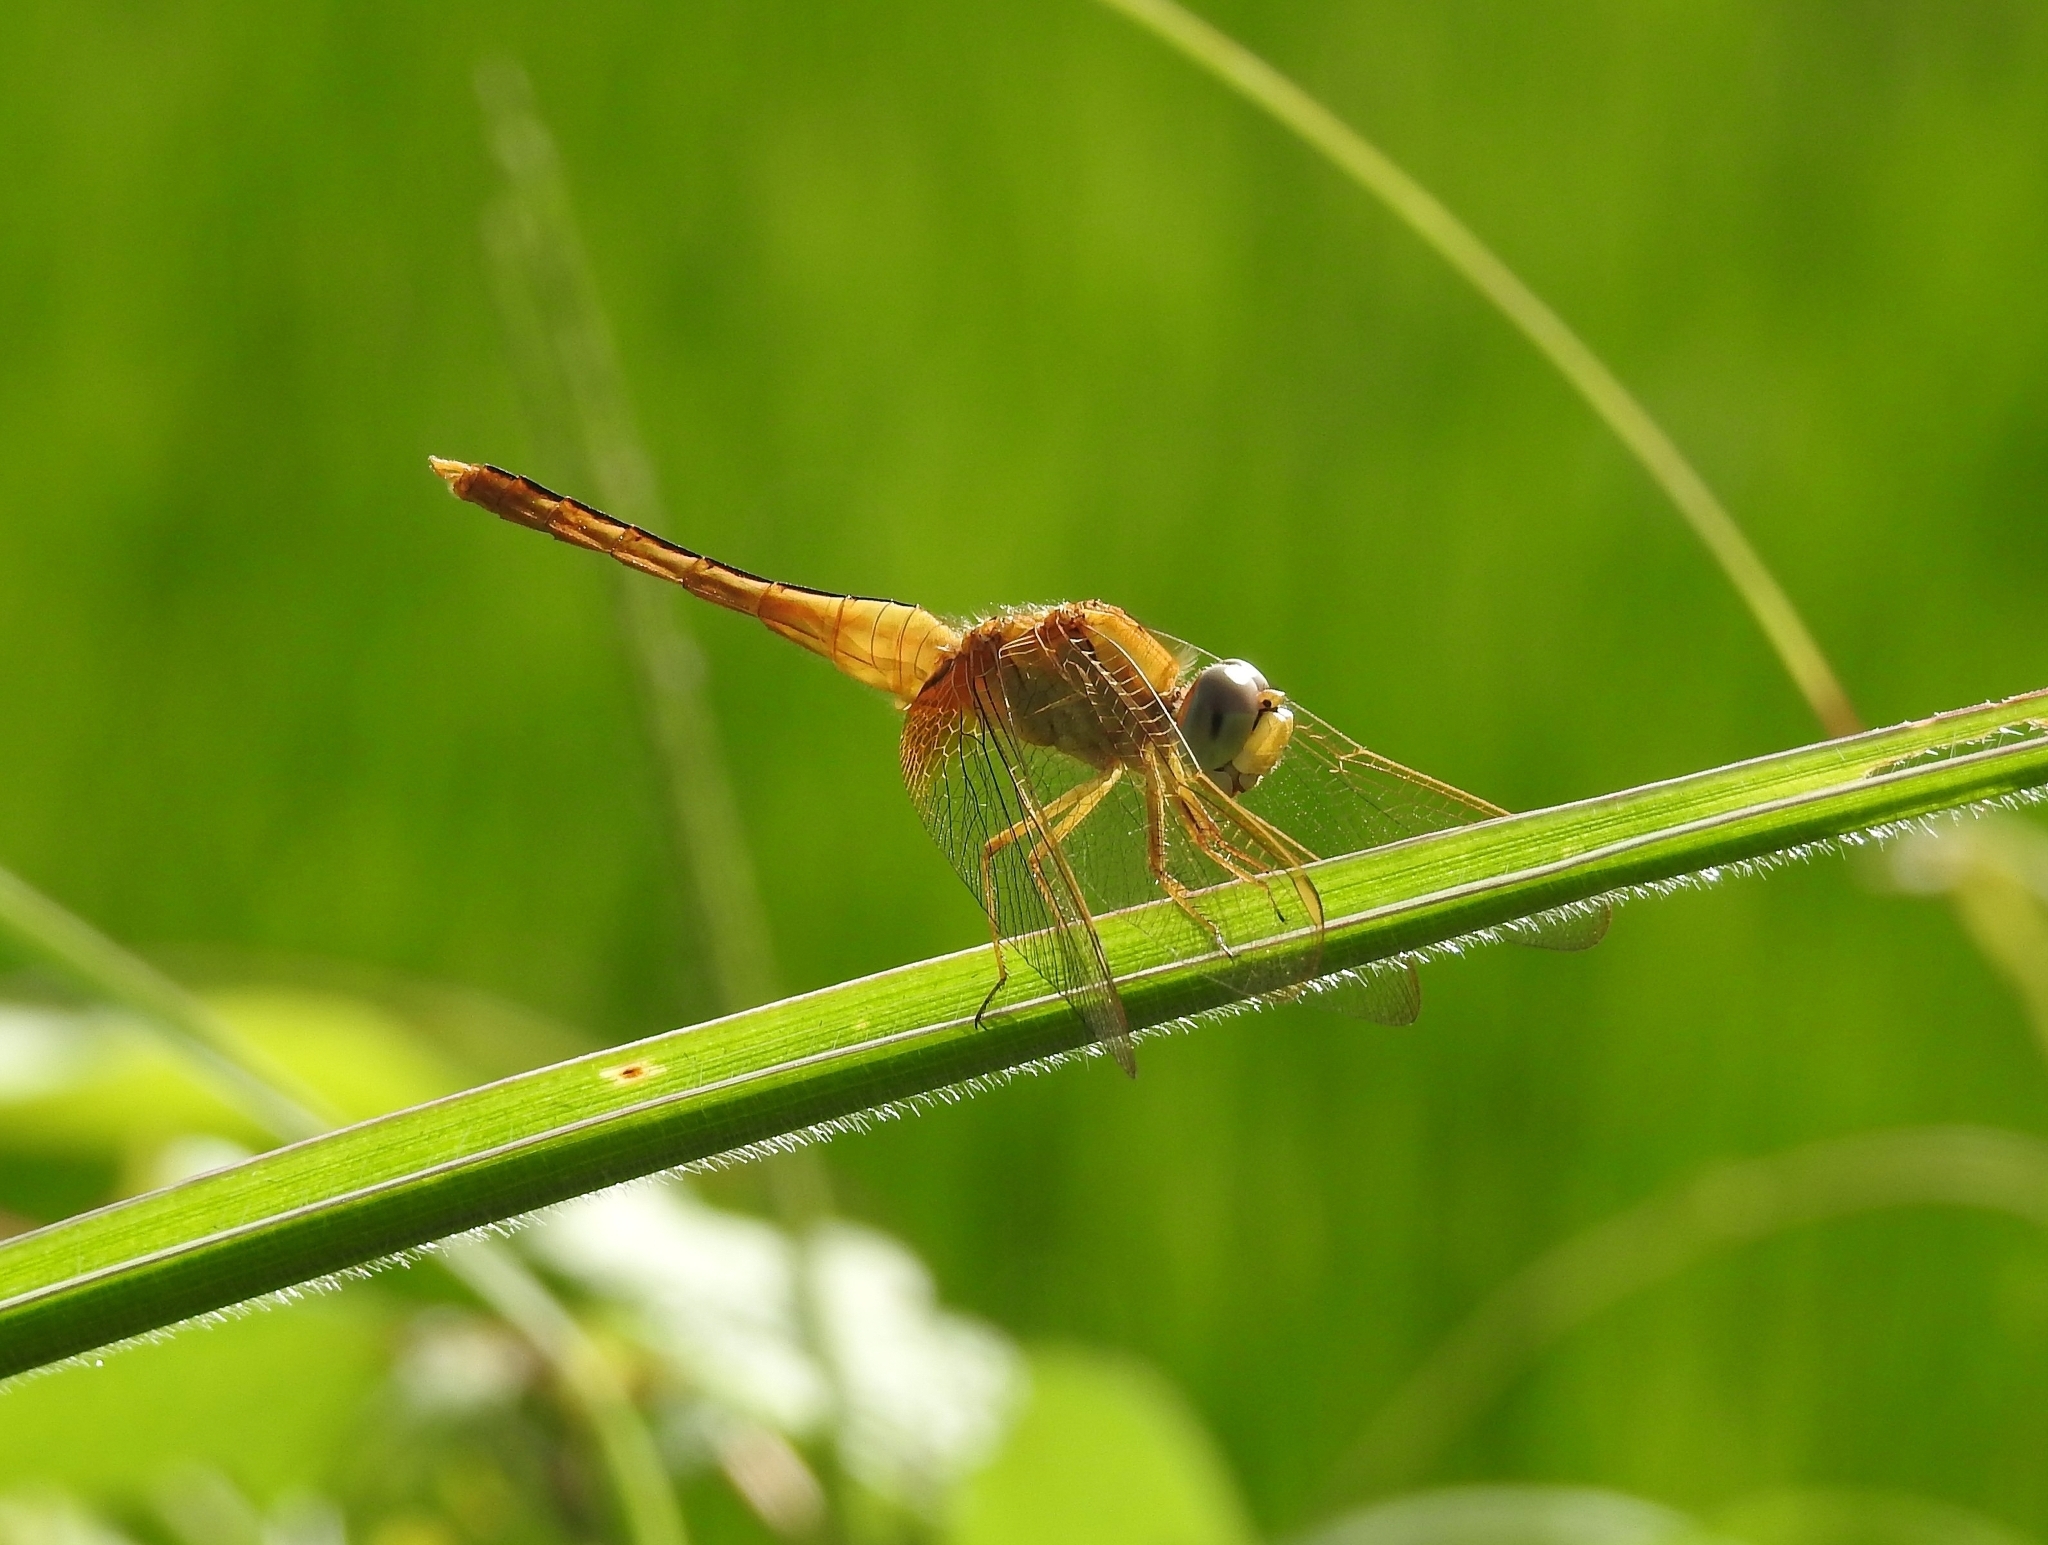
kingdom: Animalia
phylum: Arthropoda
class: Insecta
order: Odonata
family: Libellulidae
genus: Crocothemis
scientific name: Crocothemis servilia
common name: Scarlet skimmer
